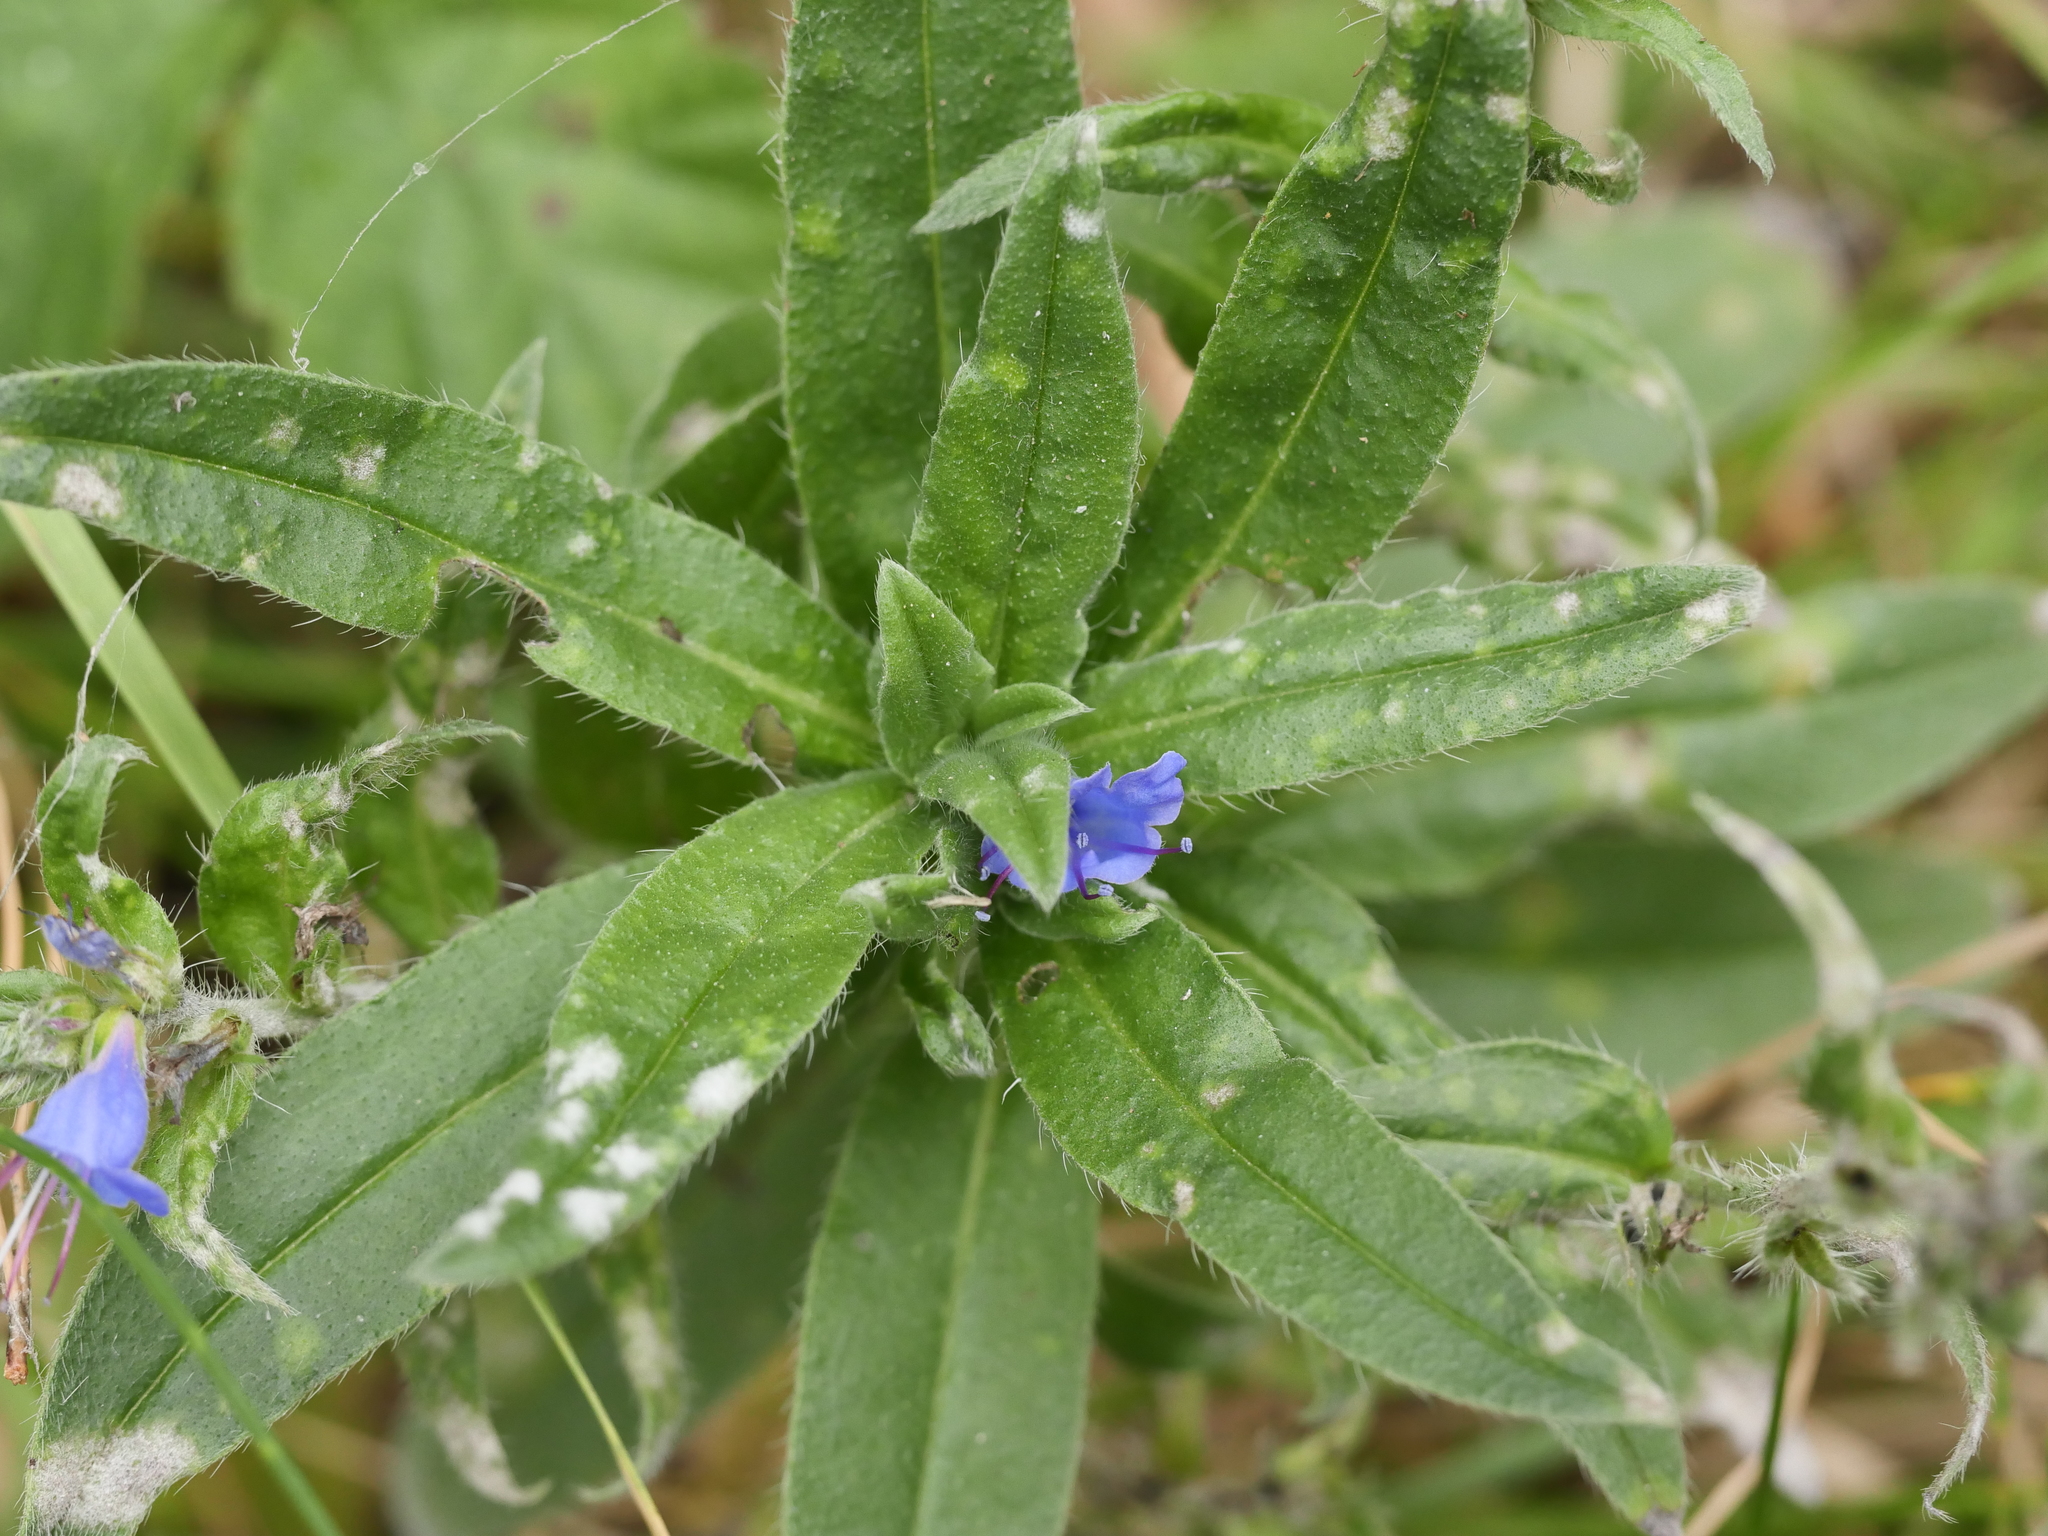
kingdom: Plantae
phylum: Tracheophyta
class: Magnoliopsida
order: Boraginales
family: Boraginaceae
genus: Echium
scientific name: Echium vulgare
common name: Common viper's bugloss
